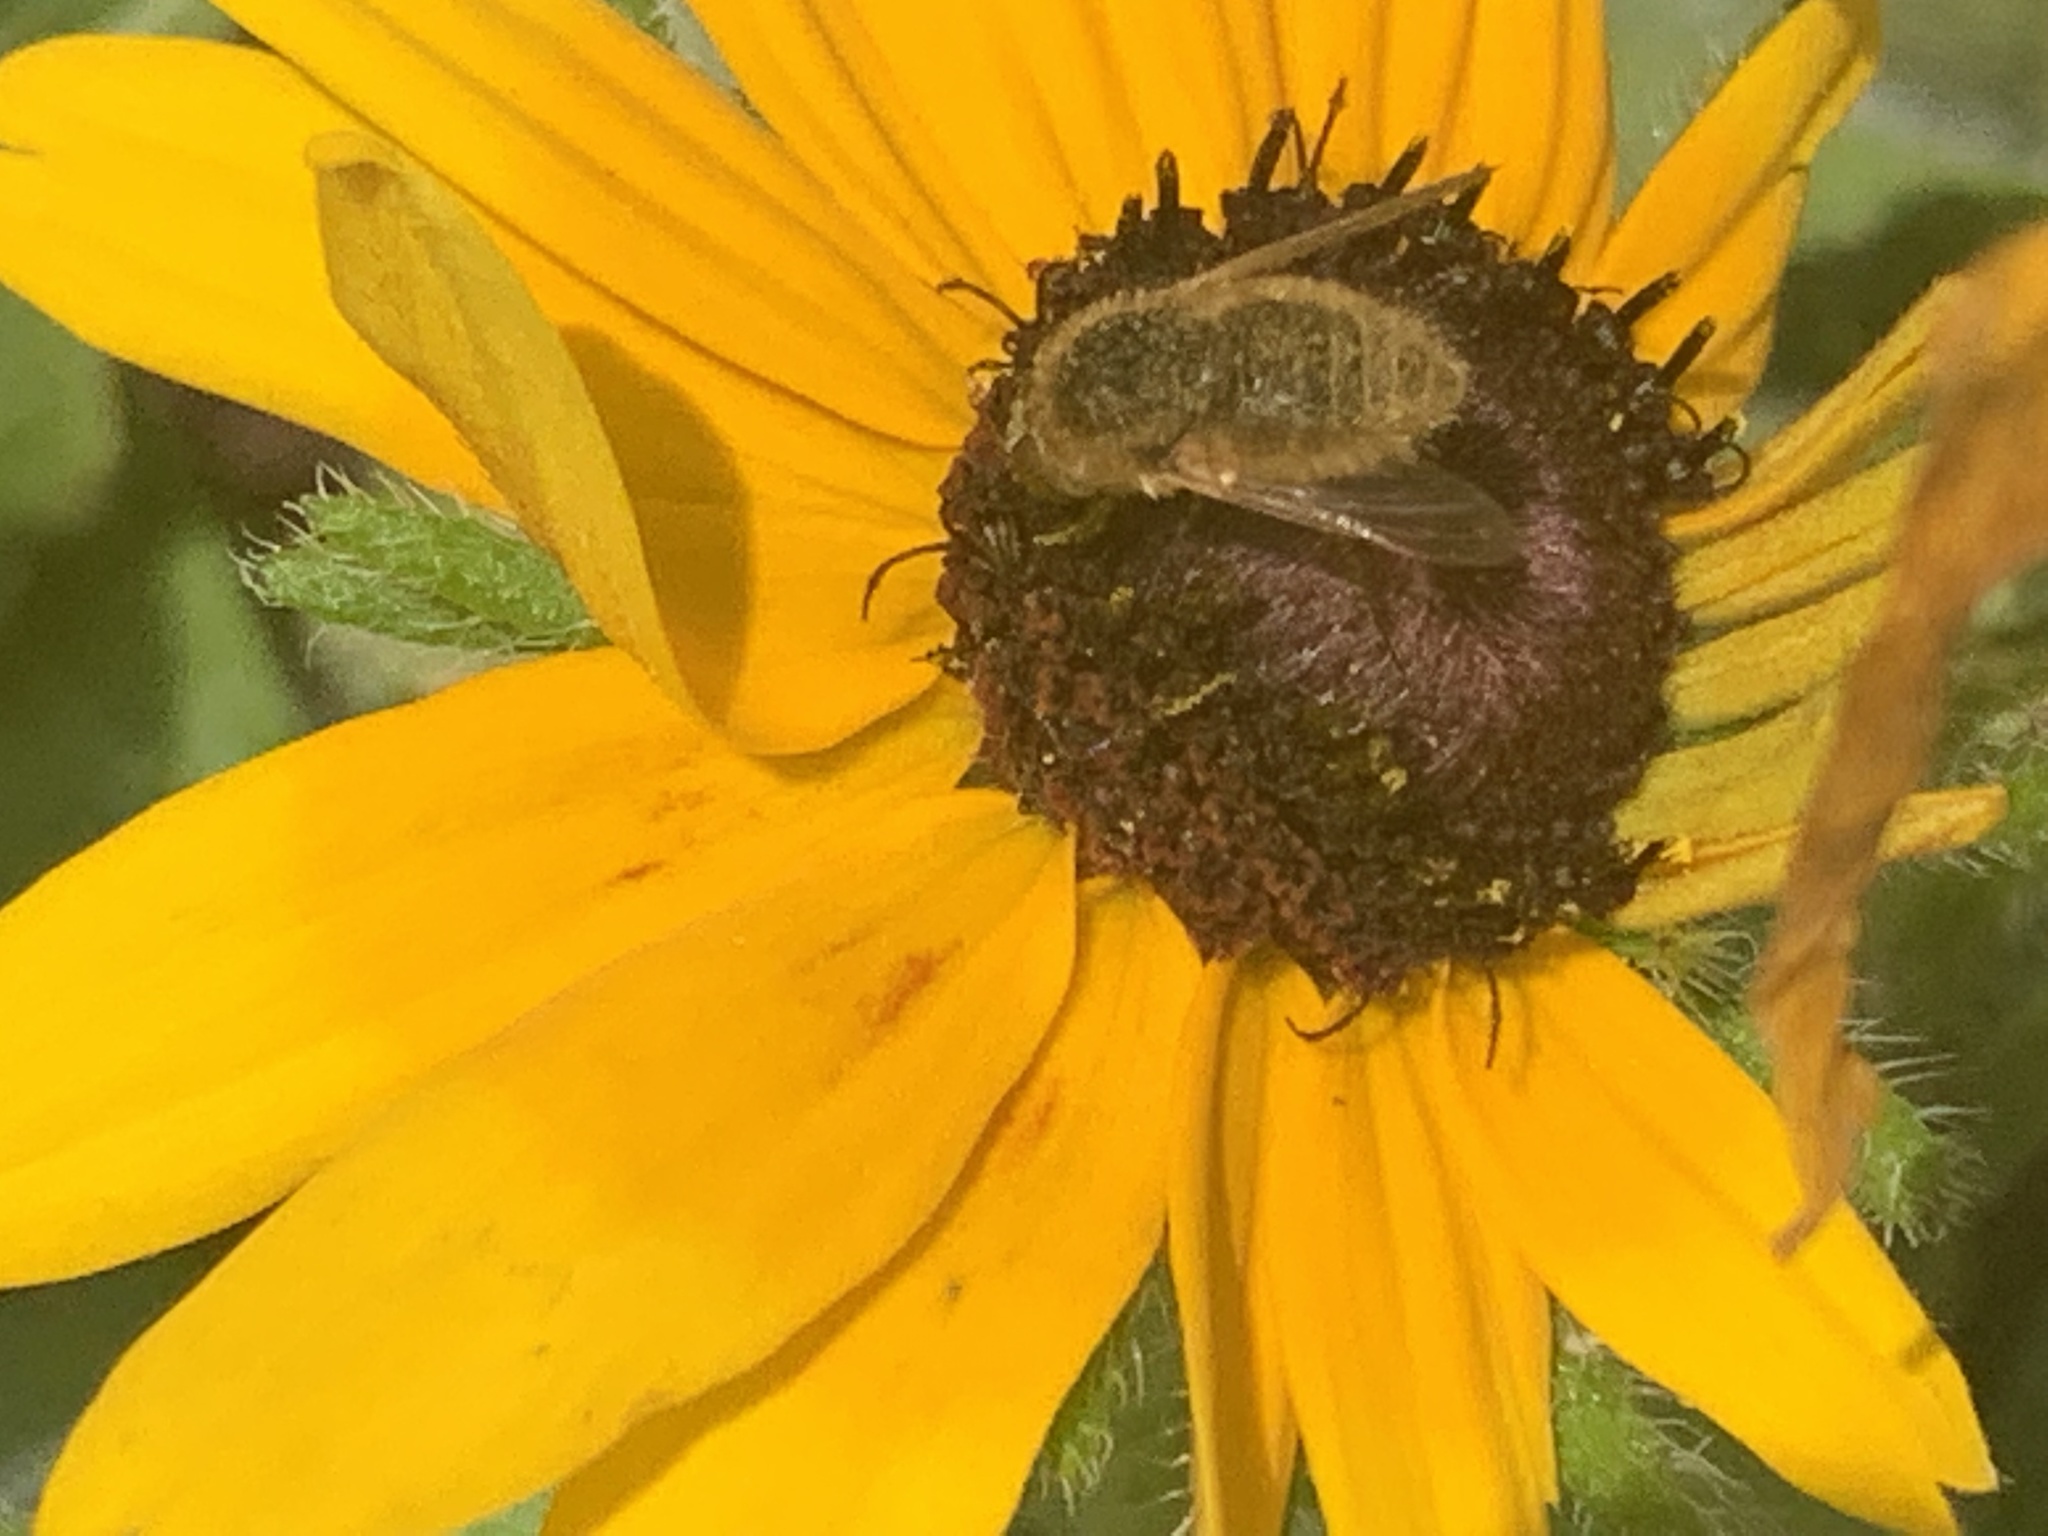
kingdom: Animalia
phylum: Arthropoda
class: Insecta
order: Diptera
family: Bombyliidae
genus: Sparnopolius
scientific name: Sparnopolius confusus
